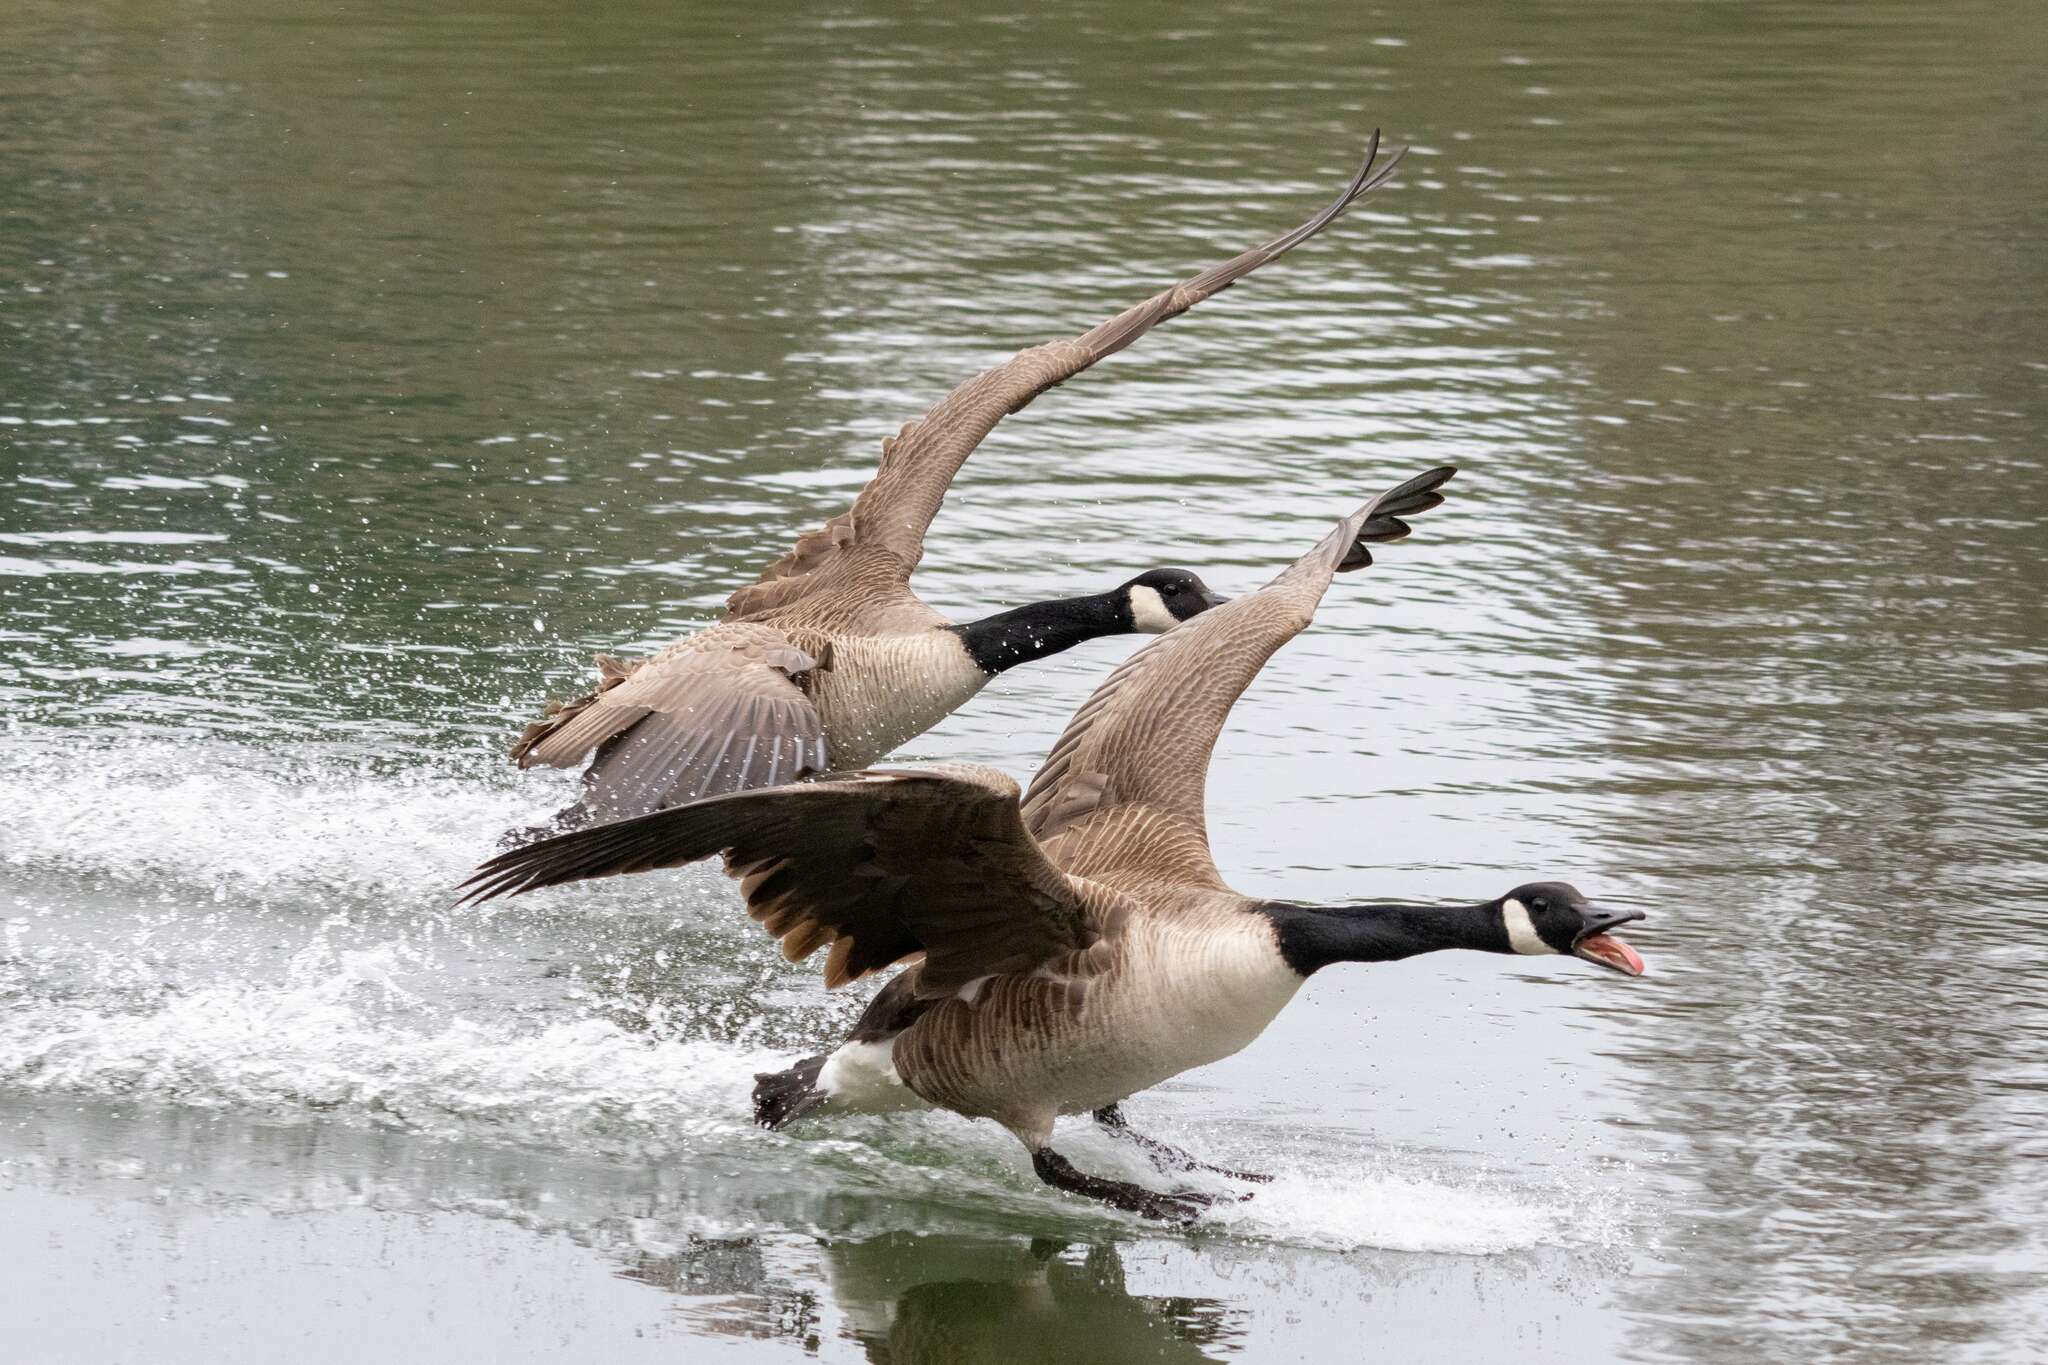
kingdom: Animalia
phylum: Chordata
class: Aves
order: Anseriformes
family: Anatidae
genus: Branta
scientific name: Branta canadensis
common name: Canada goose
